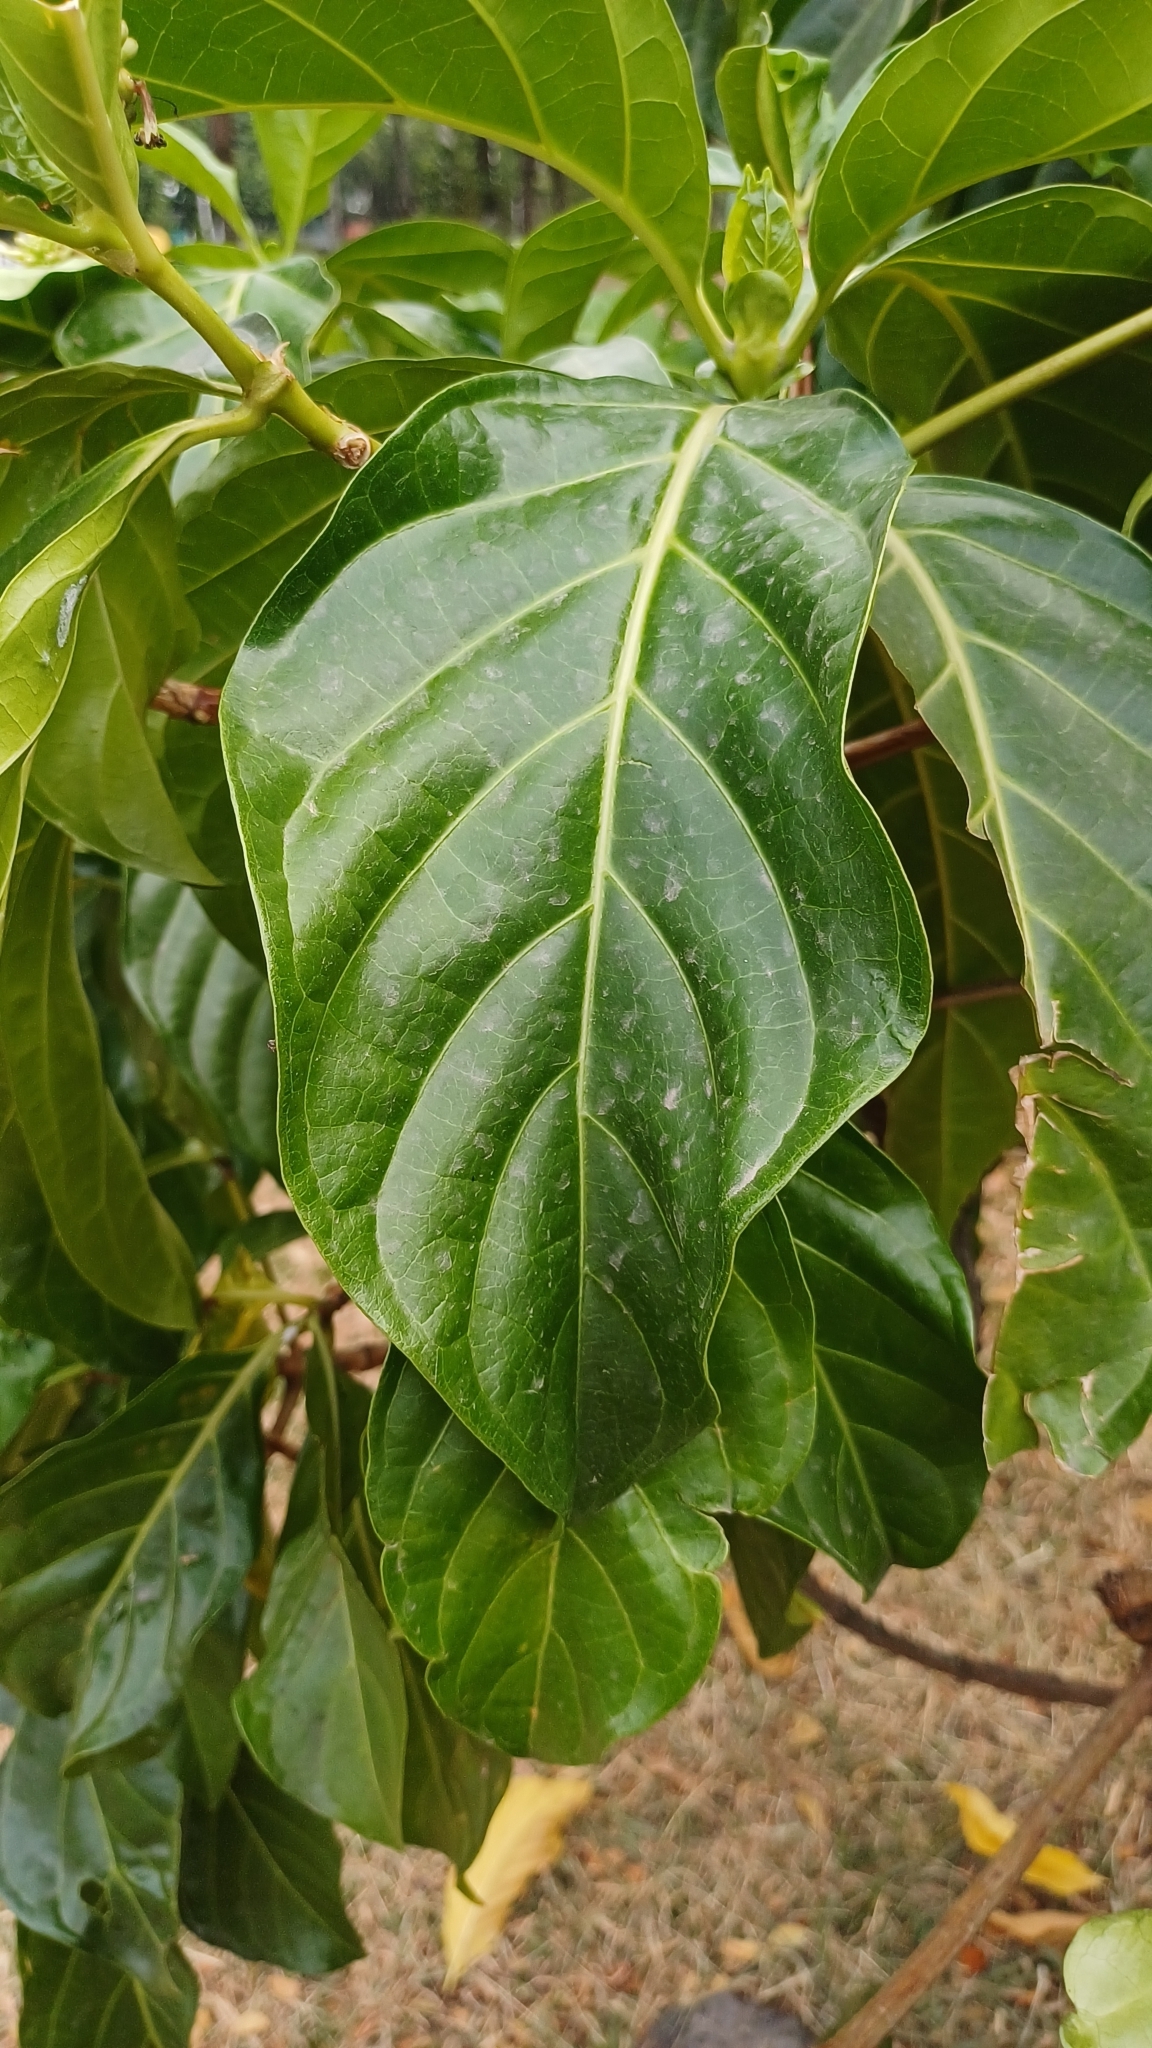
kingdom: Plantae
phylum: Tracheophyta
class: Magnoliopsida
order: Gentianales
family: Rubiaceae
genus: Morinda
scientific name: Morinda citrifolia
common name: Indian-mulberry
